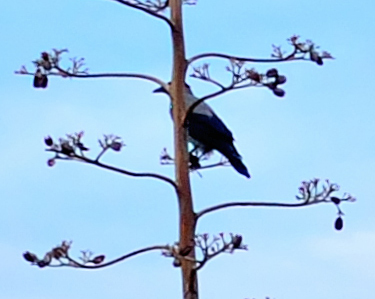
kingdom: Animalia
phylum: Chordata
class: Aves
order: Passeriformes
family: Corvidae
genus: Corvus
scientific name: Corvus cornix
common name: Hooded crow
